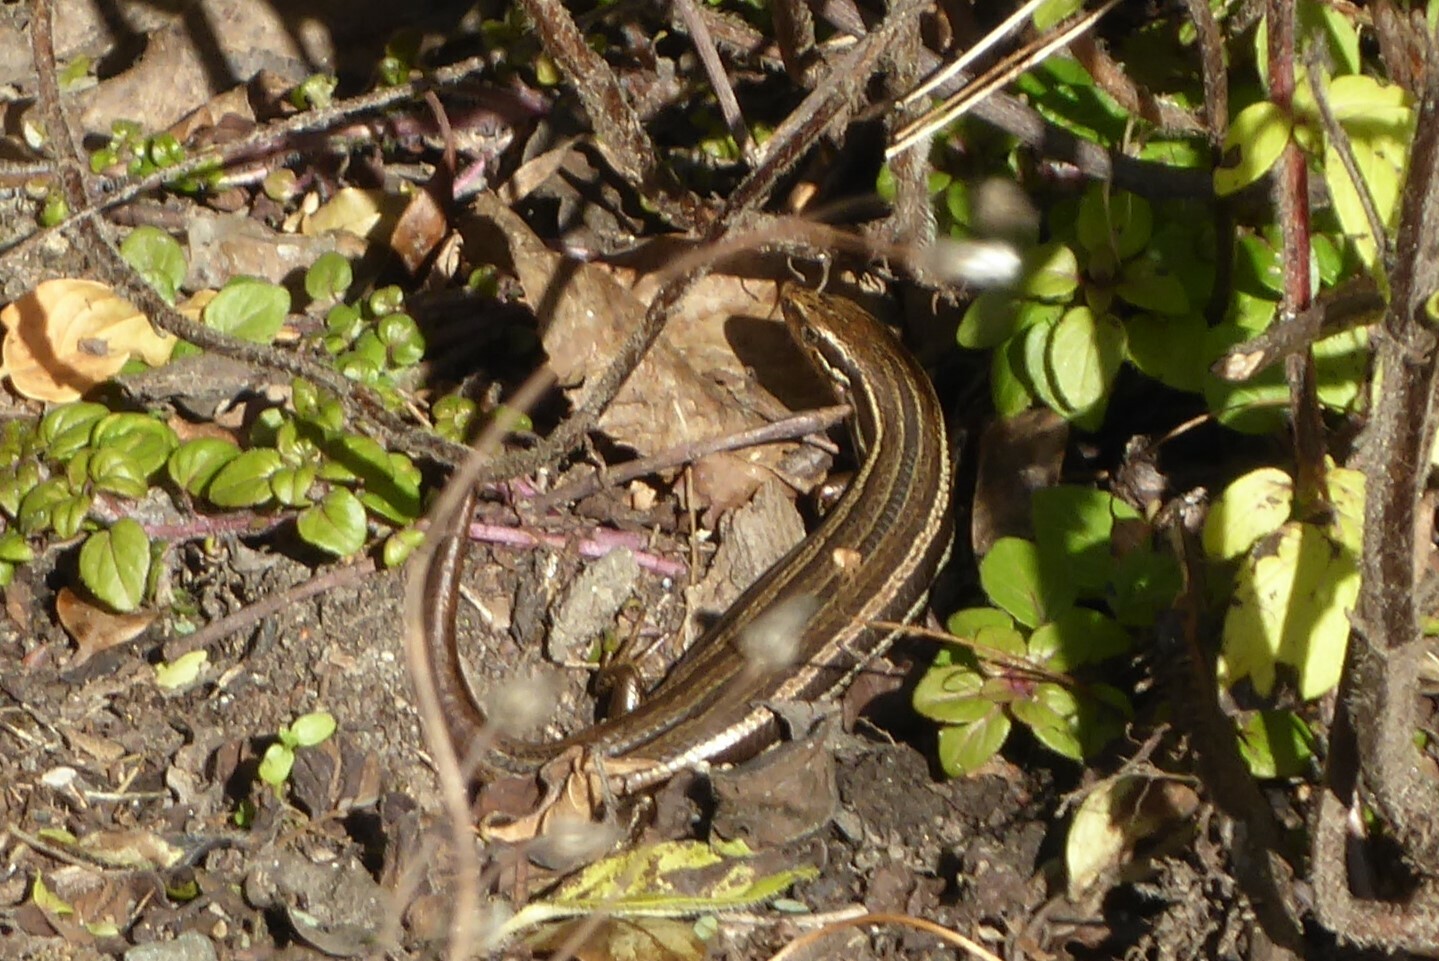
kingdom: Animalia
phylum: Chordata
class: Squamata
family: Scincidae
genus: Oligosoma
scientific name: Oligosoma polychroma
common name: Common new zealand skink
